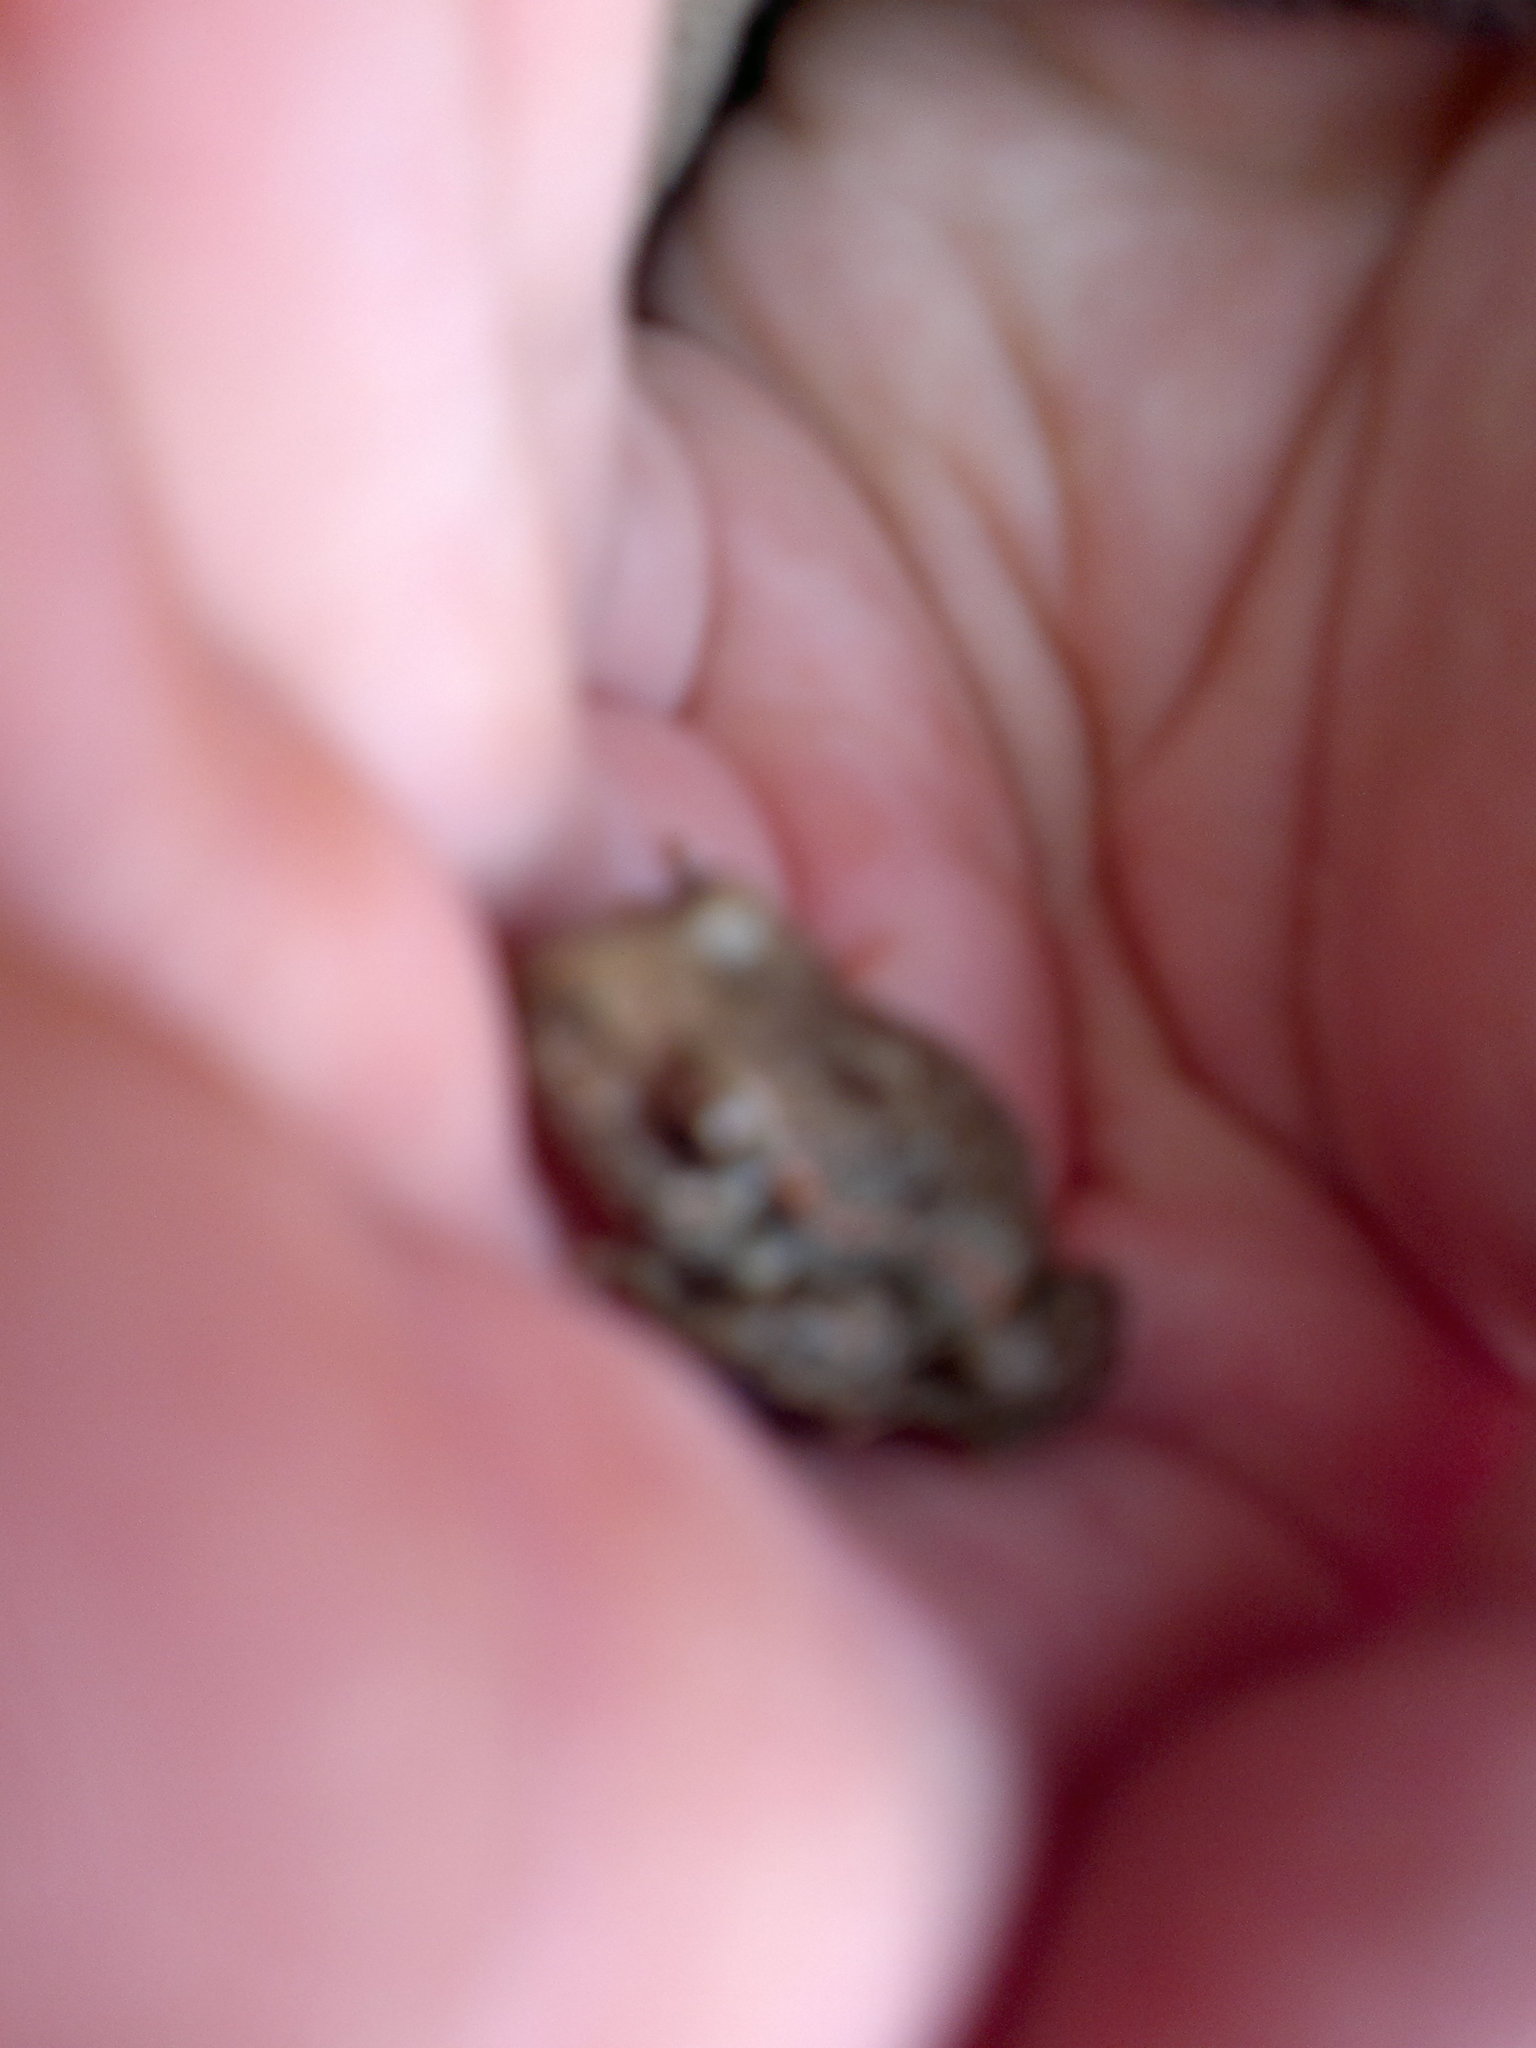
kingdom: Animalia
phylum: Chordata
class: Amphibia
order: Anura
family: Alytidae
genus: Alytes
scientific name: Alytes obstetricans
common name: Midwife toad
